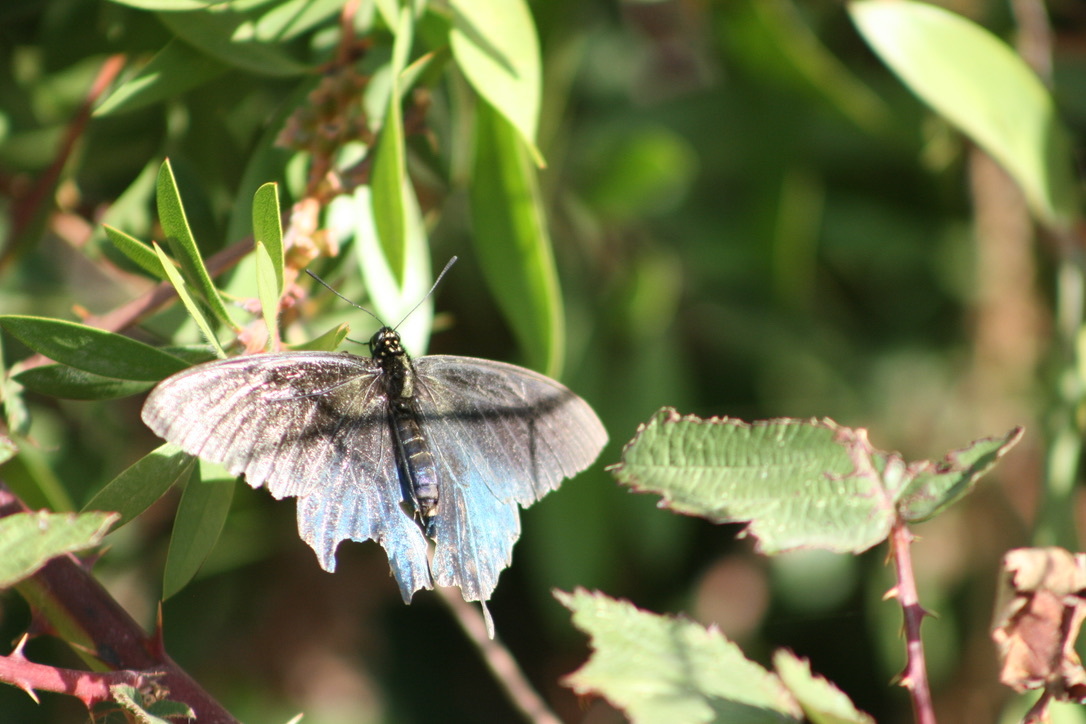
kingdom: Animalia
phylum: Arthropoda
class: Insecta
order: Lepidoptera
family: Papilionidae
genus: Battus
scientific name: Battus philenor
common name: Pipevine swallowtail
